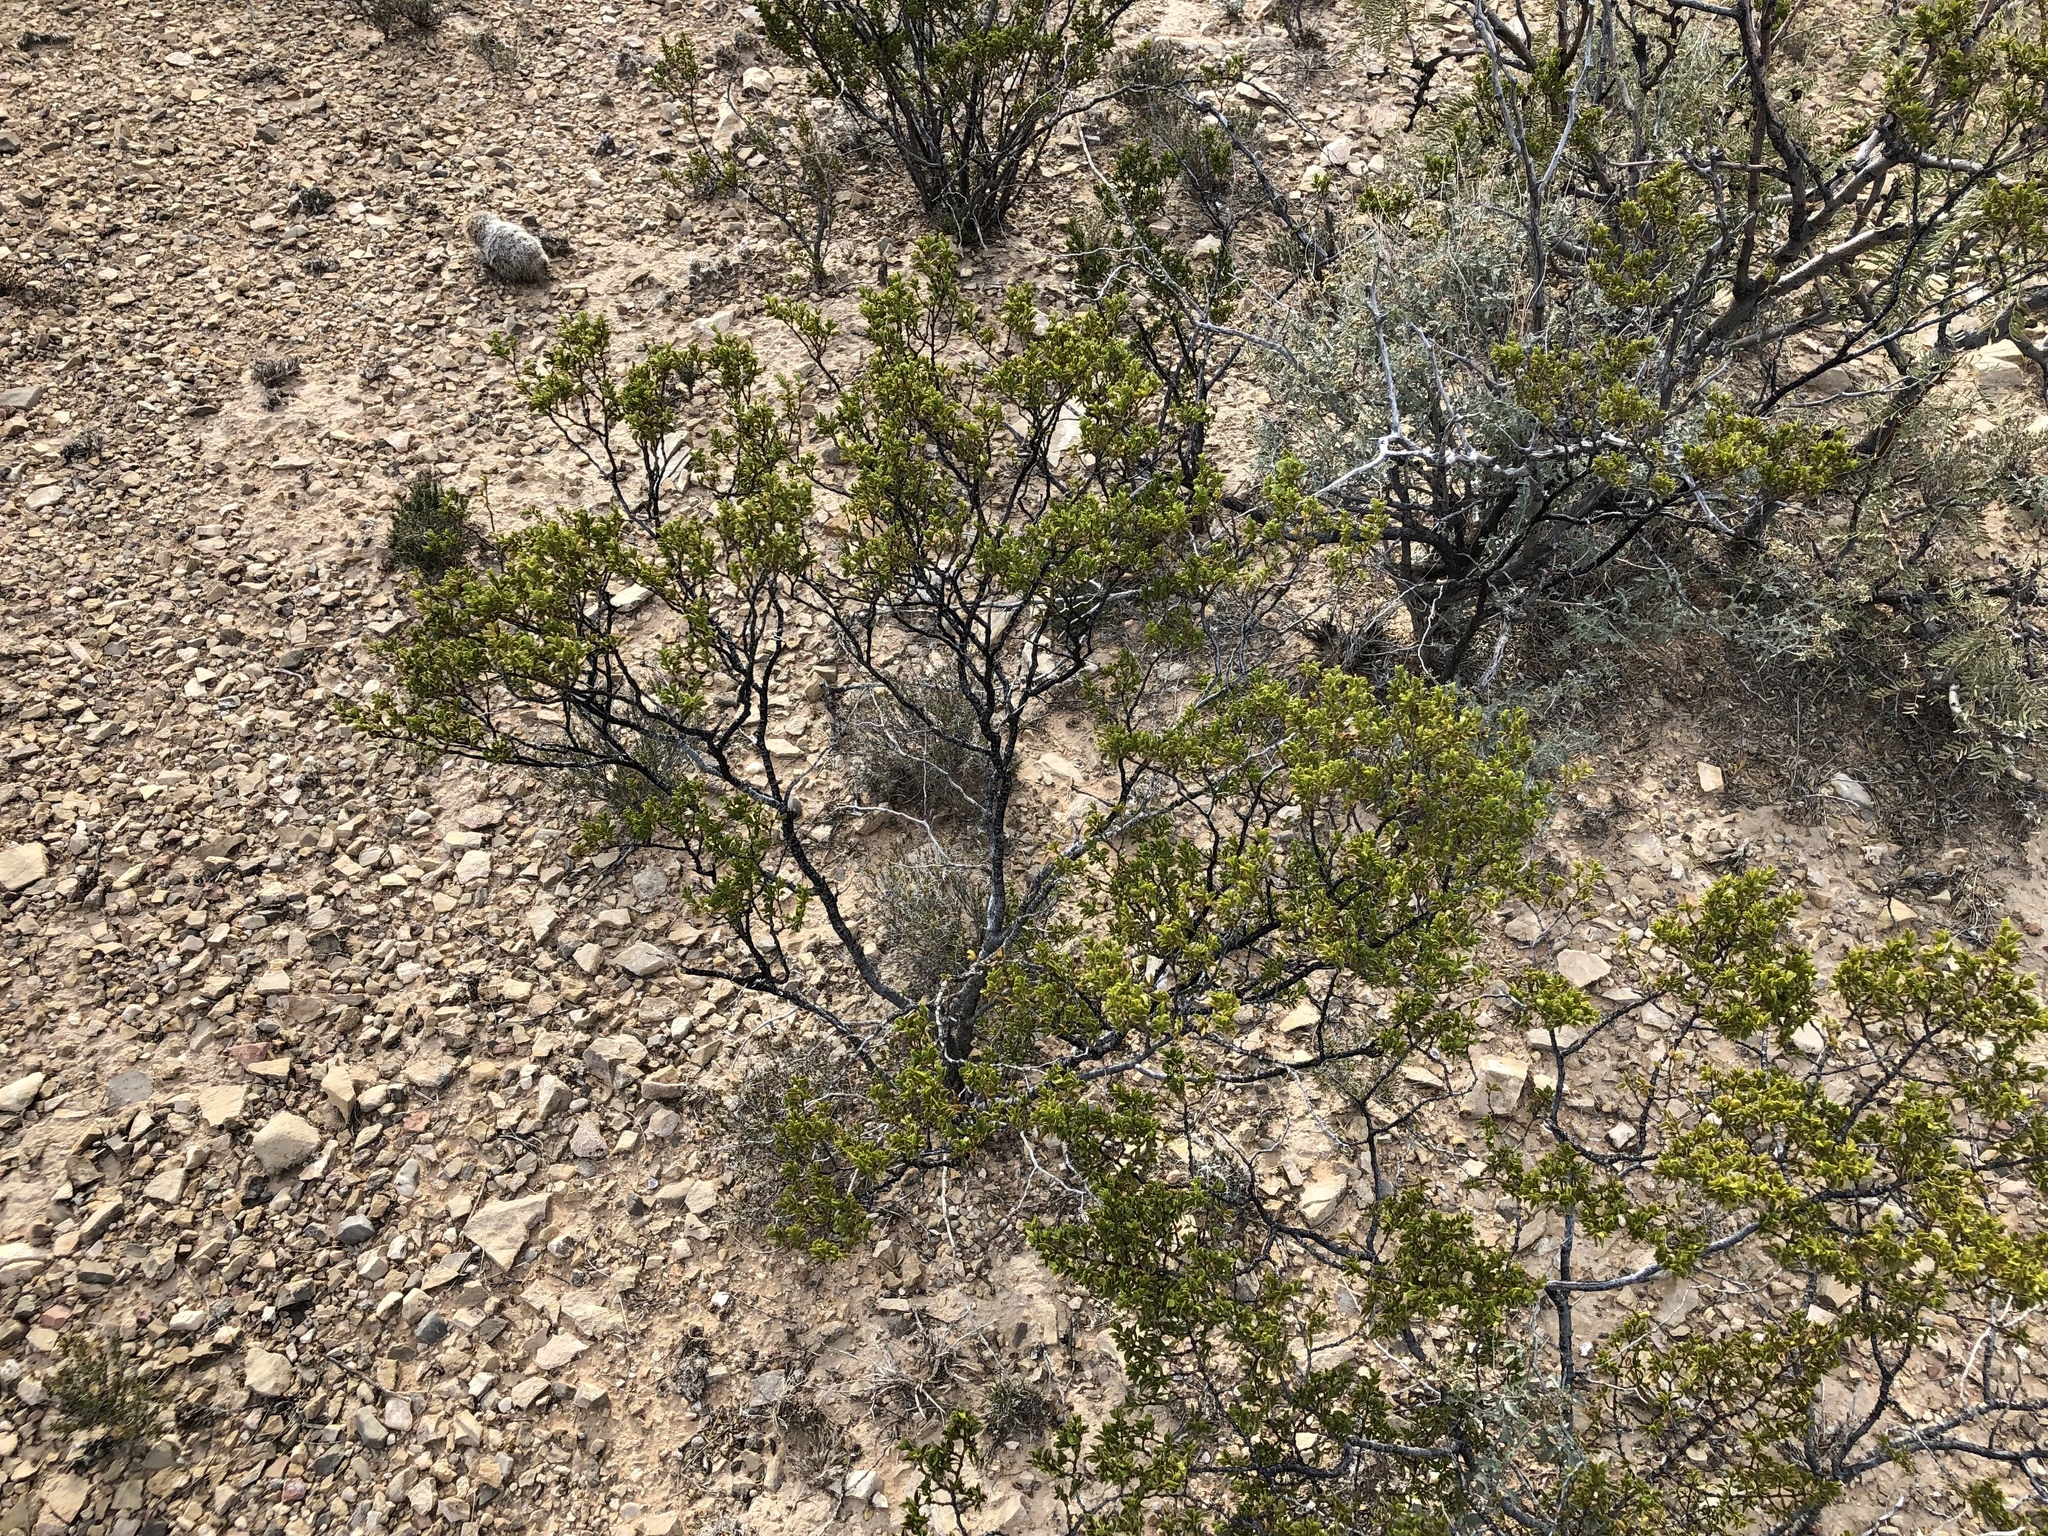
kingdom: Plantae
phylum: Tracheophyta
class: Magnoliopsida
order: Zygophyllales
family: Zygophyllaceae
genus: Larrea
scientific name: Larrea tridentata
